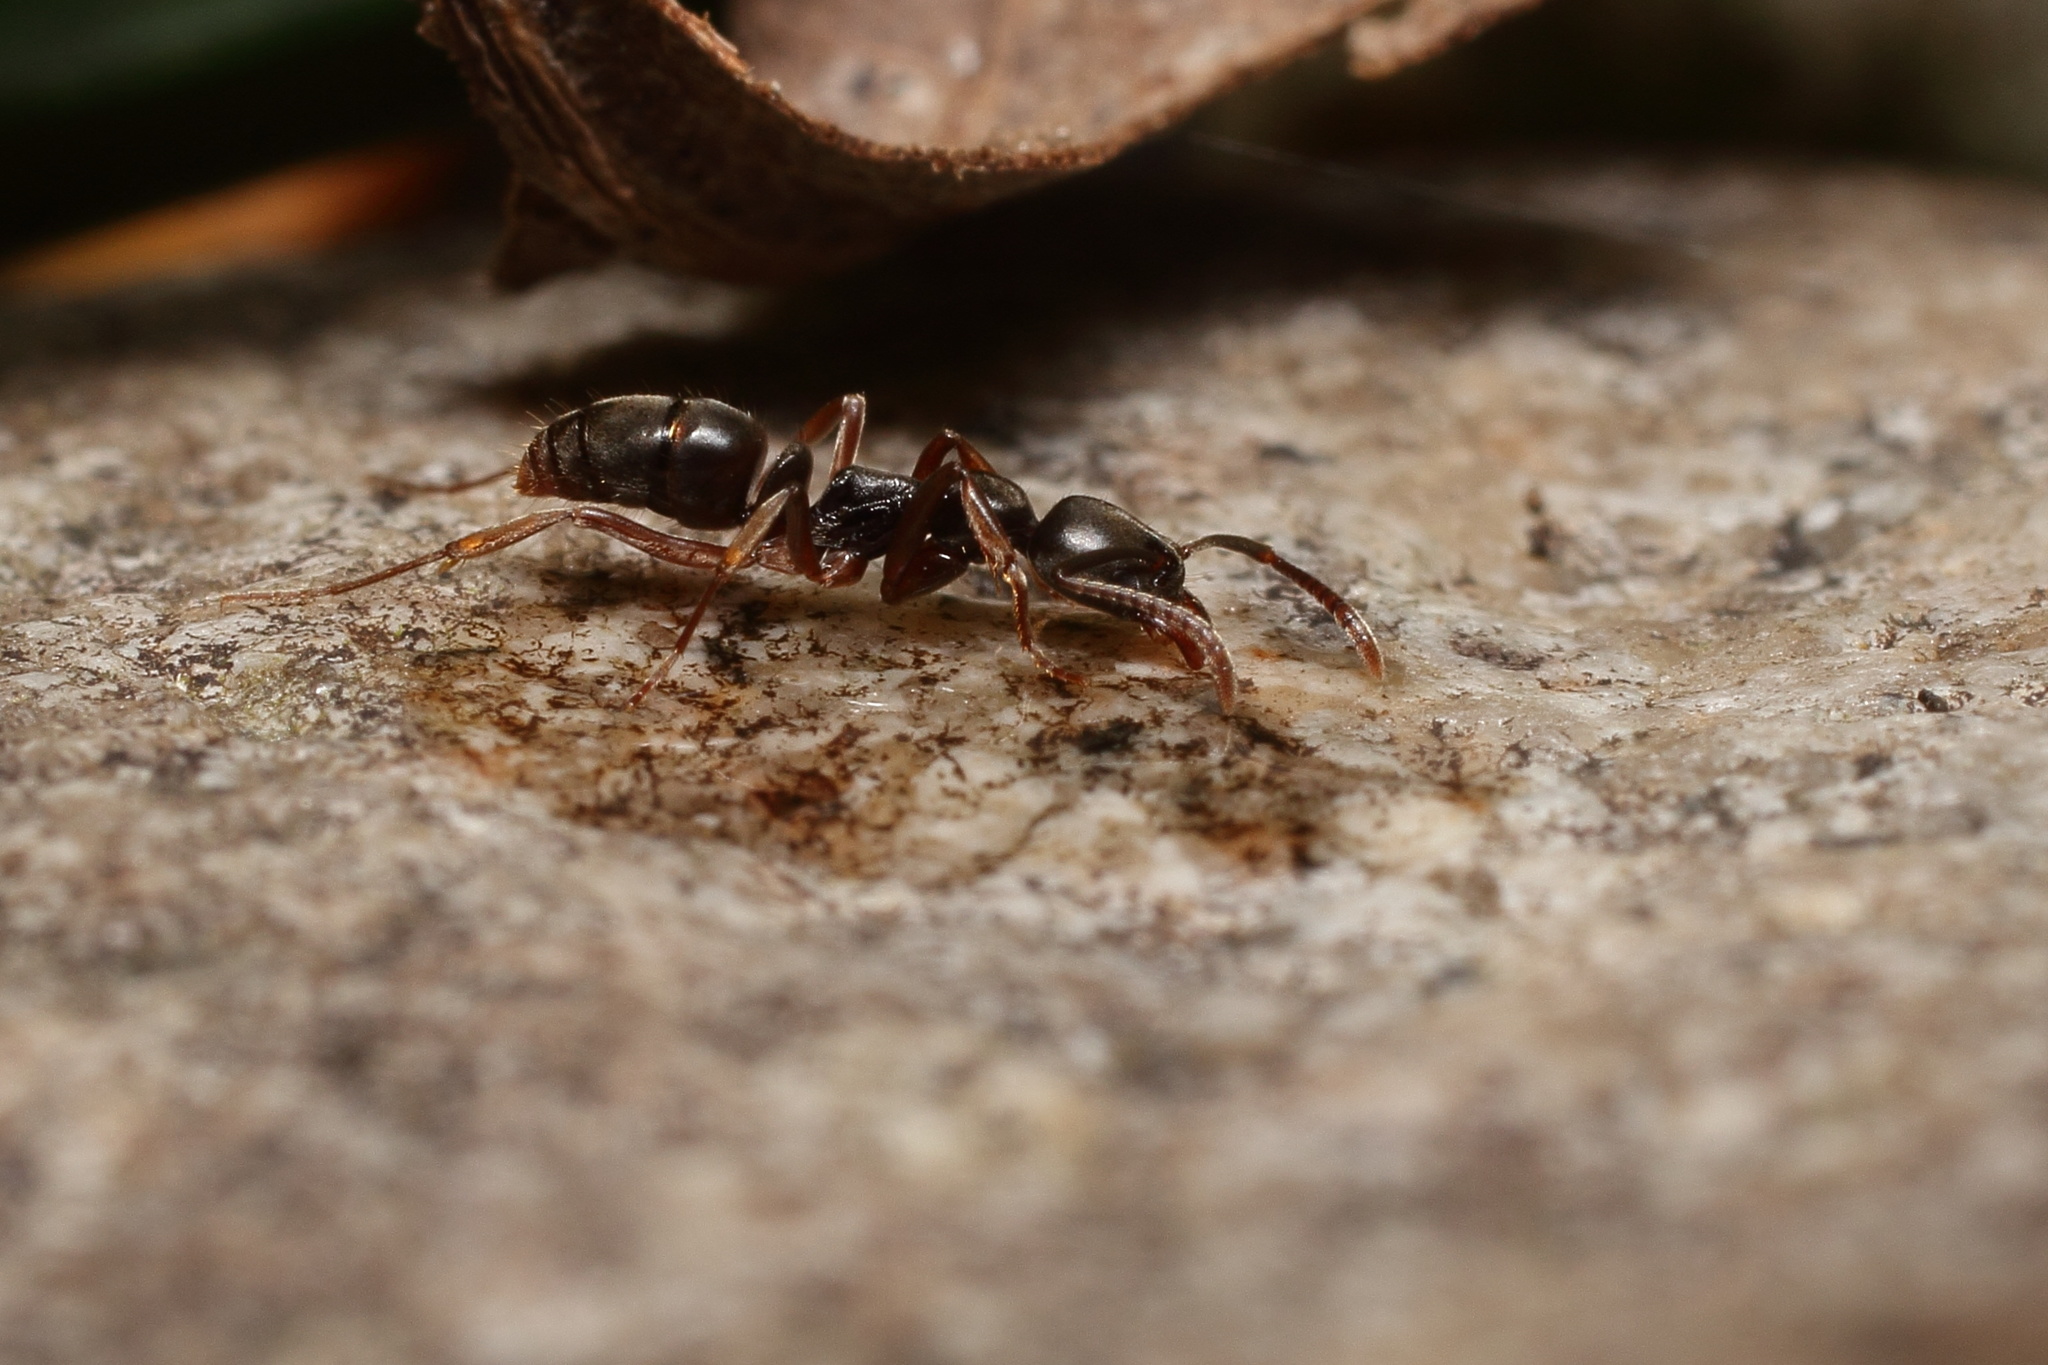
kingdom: Animalia
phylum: Arthropoda
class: Insecta
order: Hymenoptera
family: Formicidae
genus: Pachycondyla
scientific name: Pachycondyla chinensis
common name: Asian needle ant
